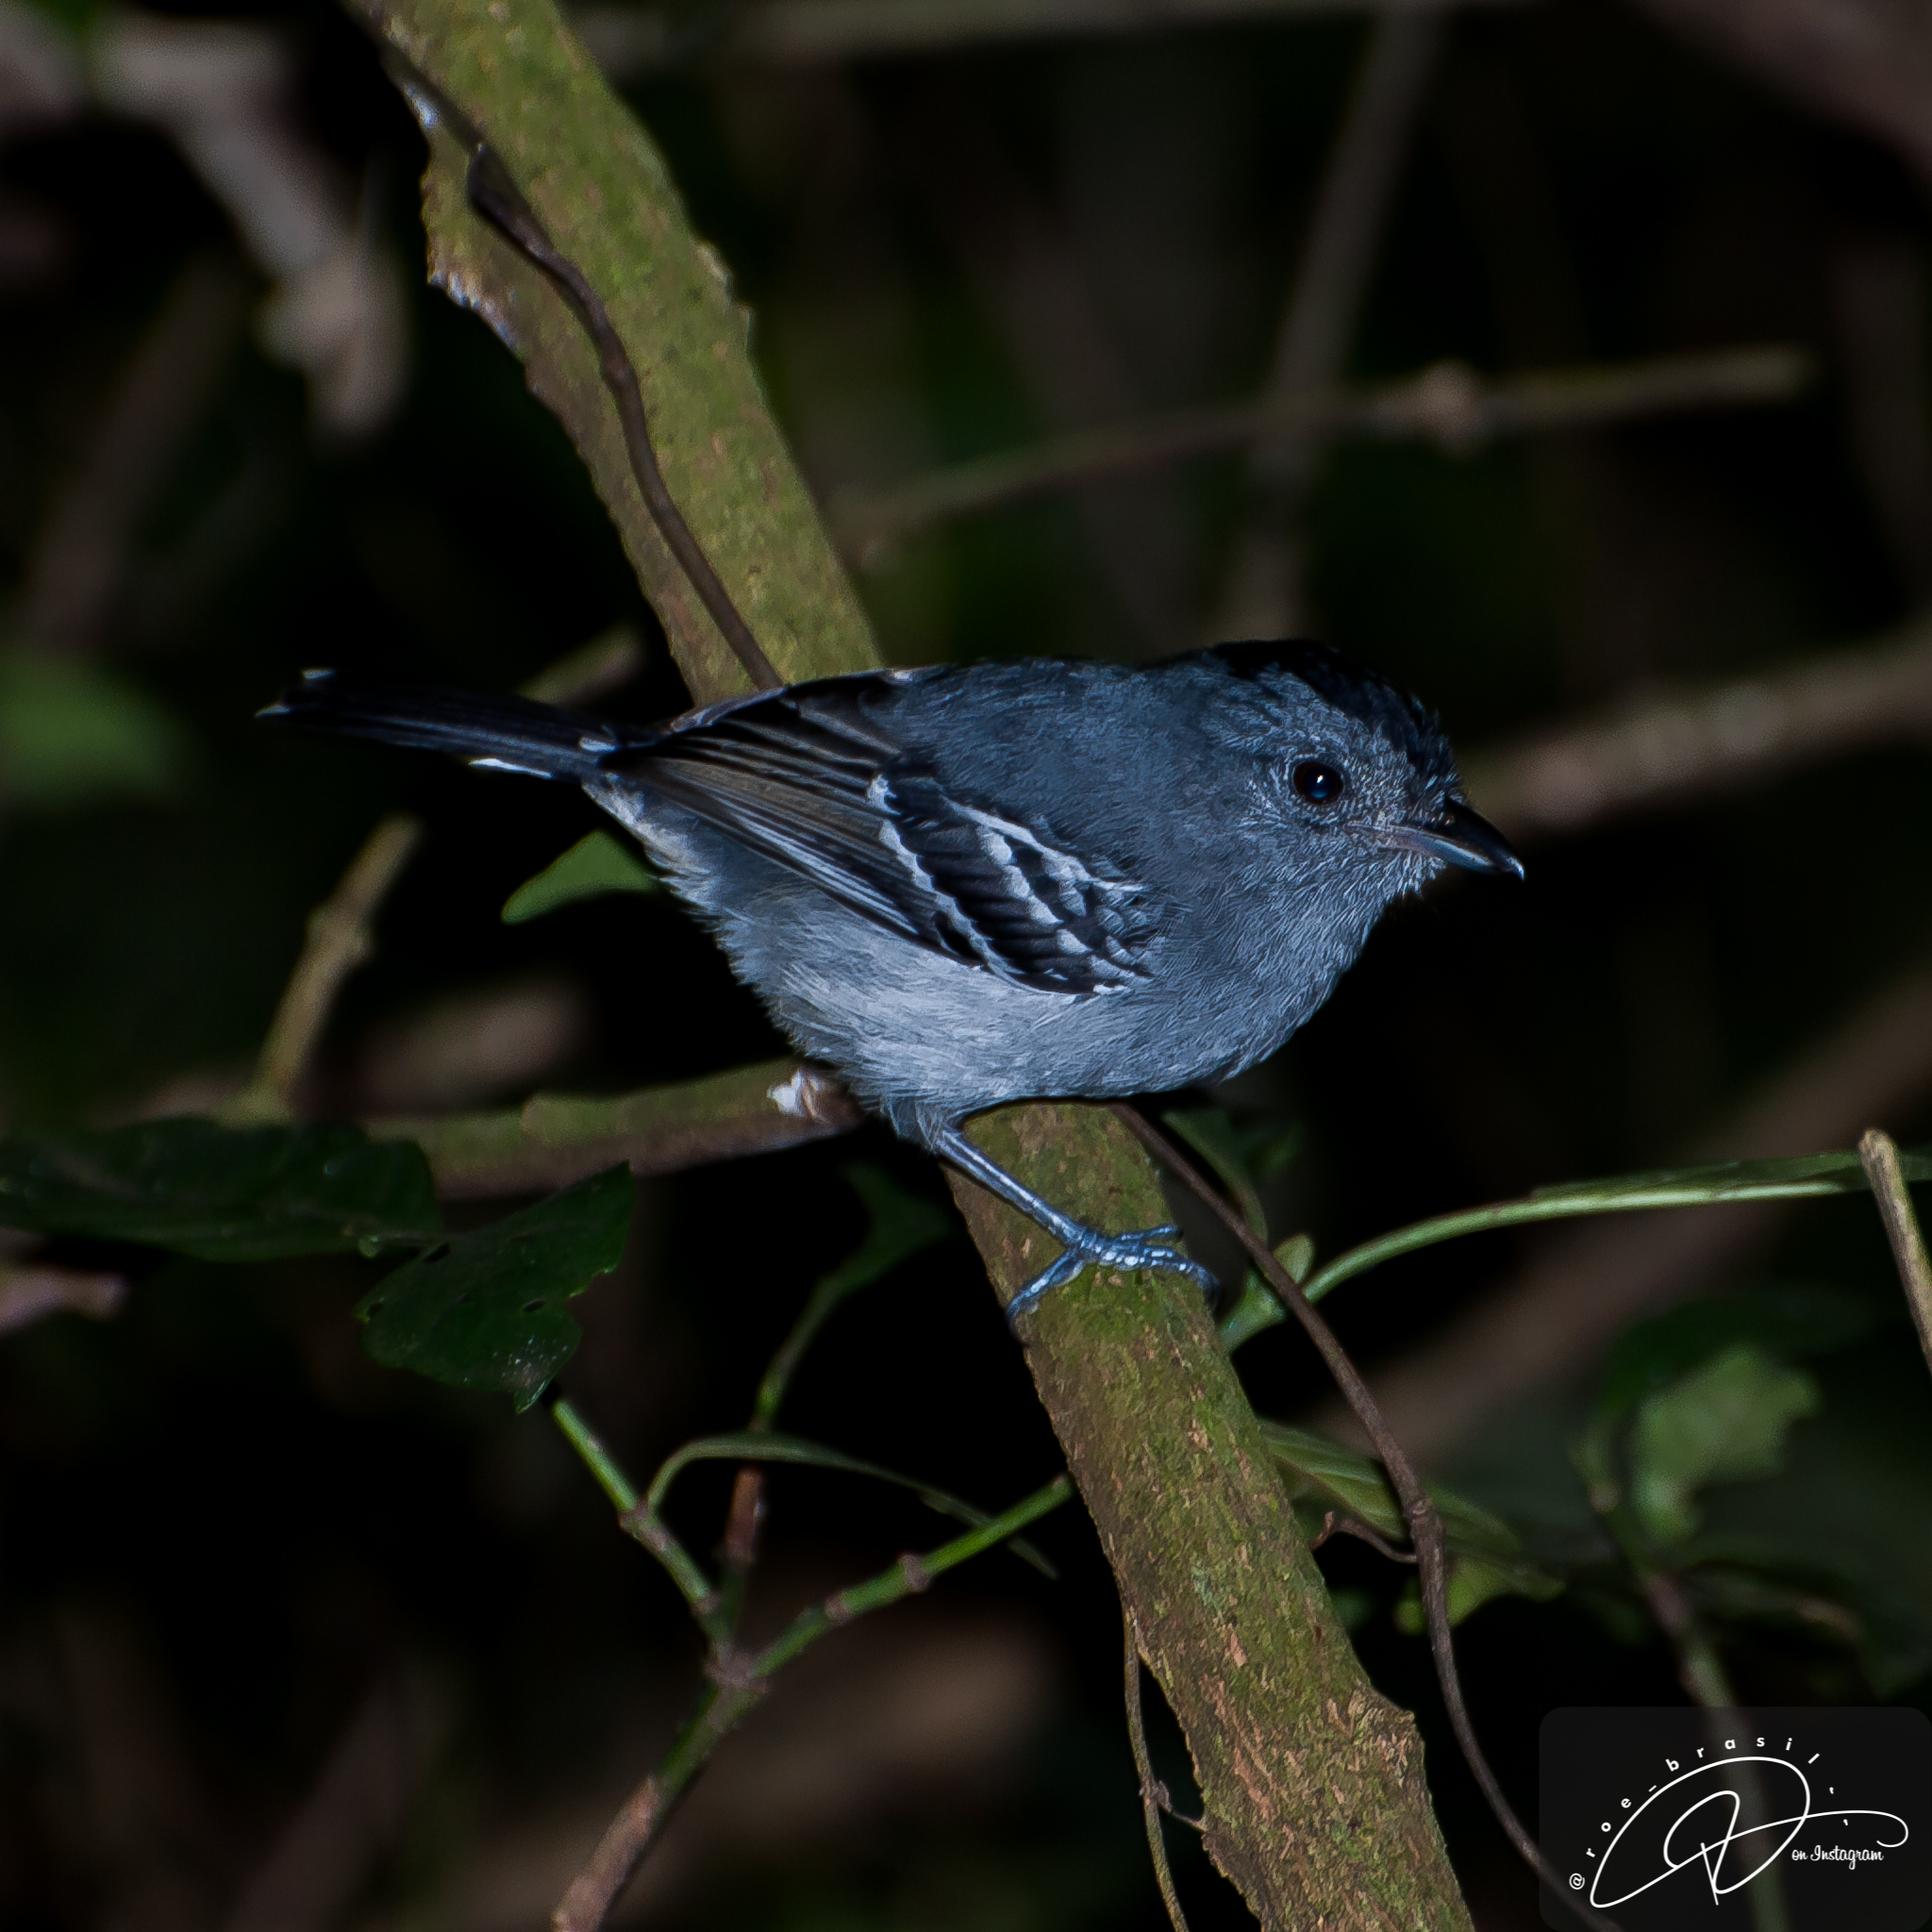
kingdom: Animalia
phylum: Chordata
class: Aves
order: Passeriformes
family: Thamnophilidae
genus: Thamnophilus
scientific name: Thamnophilus caerulescens
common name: Variable antshrike
